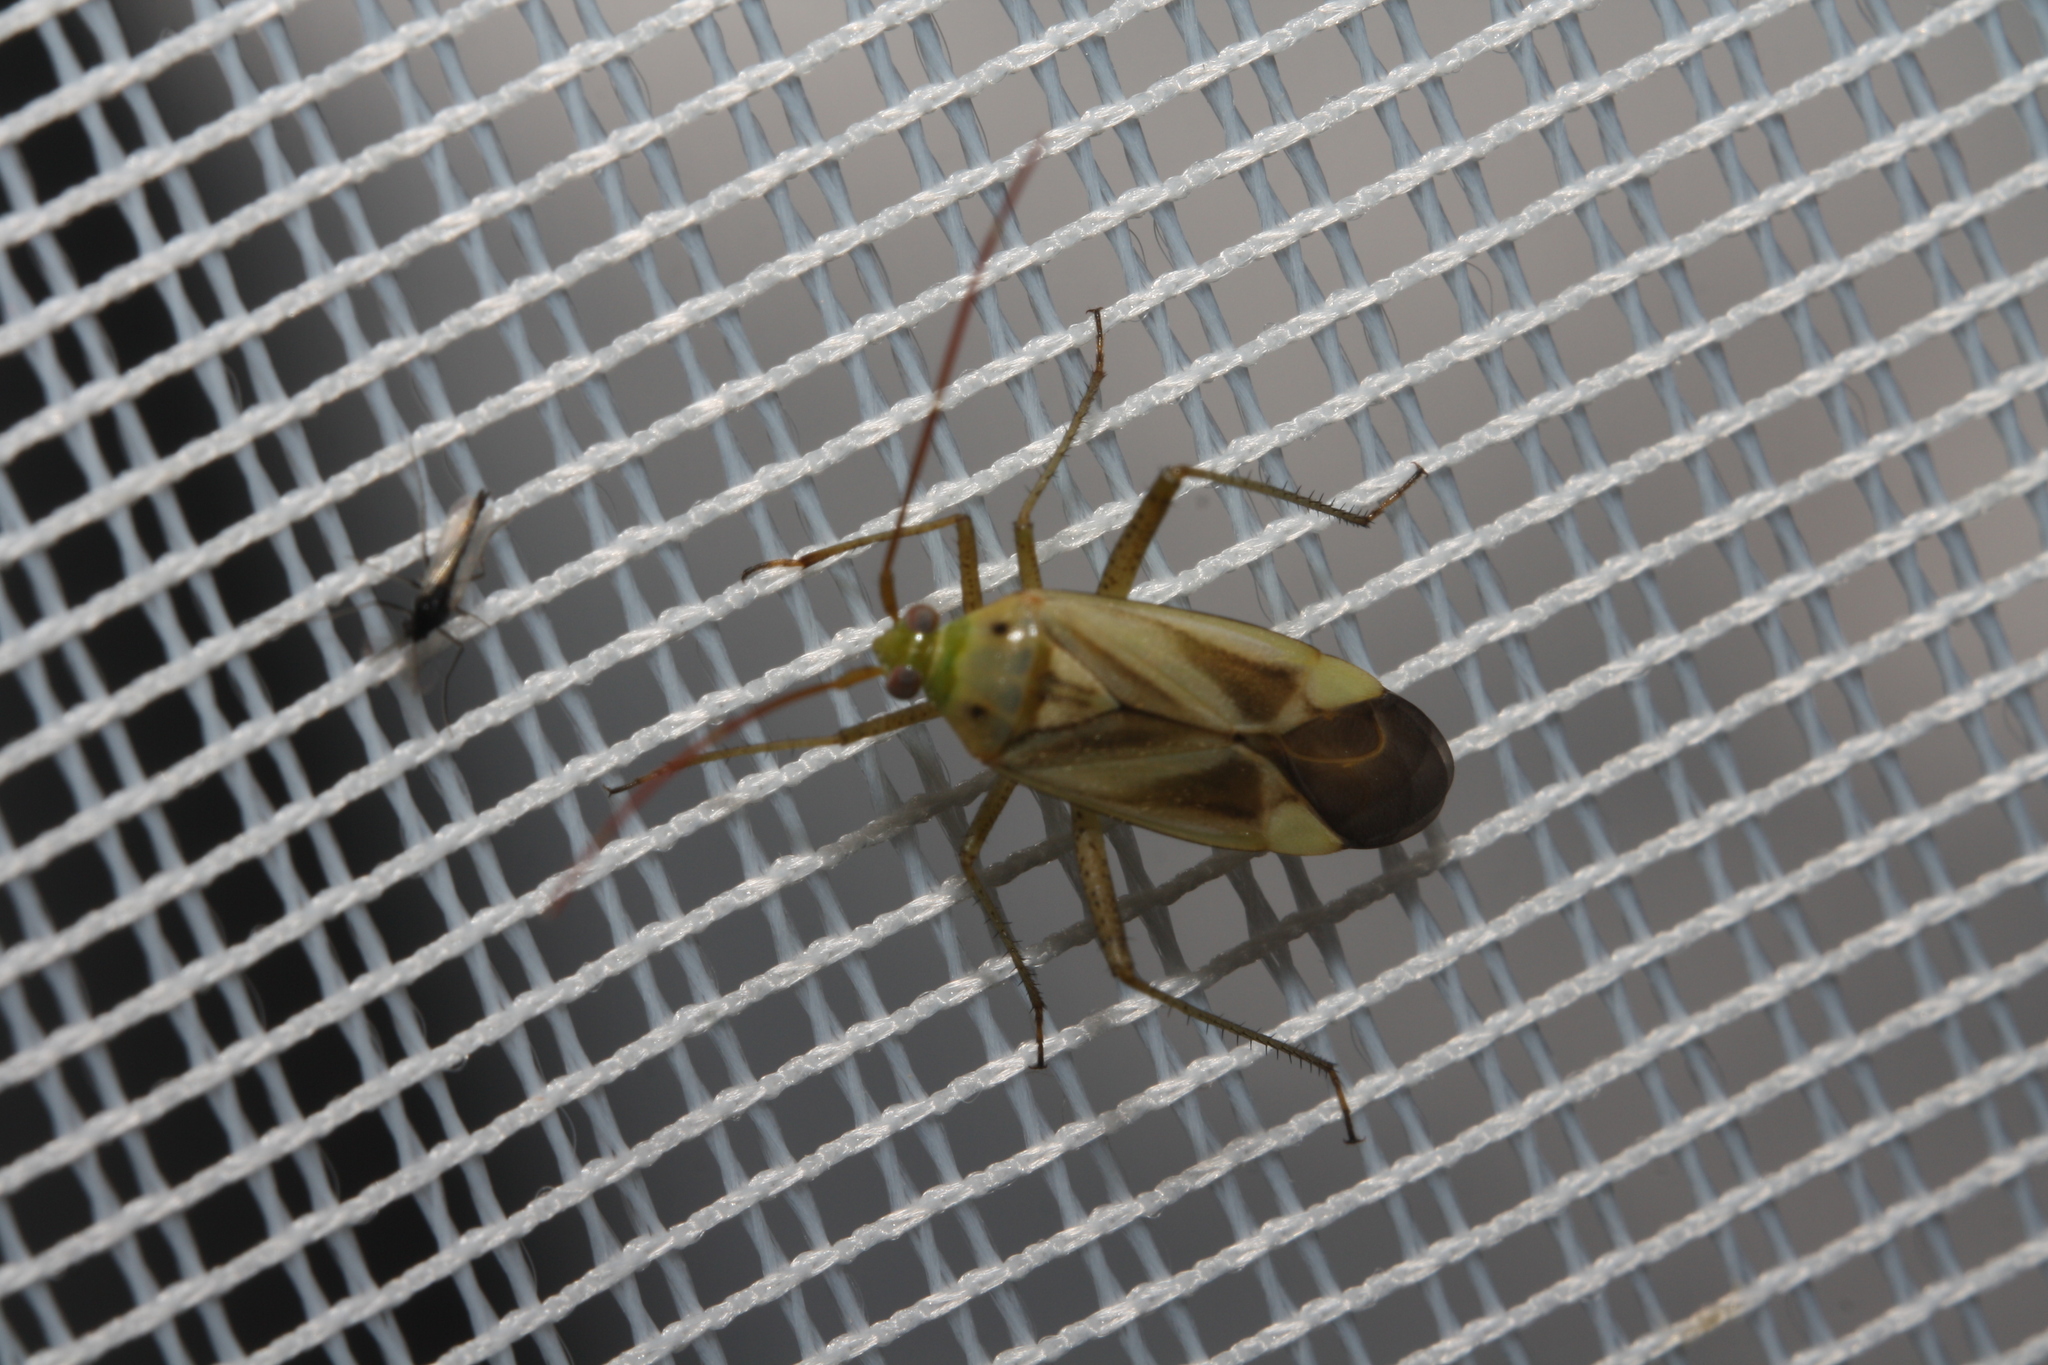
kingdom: Animalia
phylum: Arthropoda
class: Insecta
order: Hemiptera
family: Miridae
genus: Adelphocoris
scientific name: Adelphocoris lineolatus
